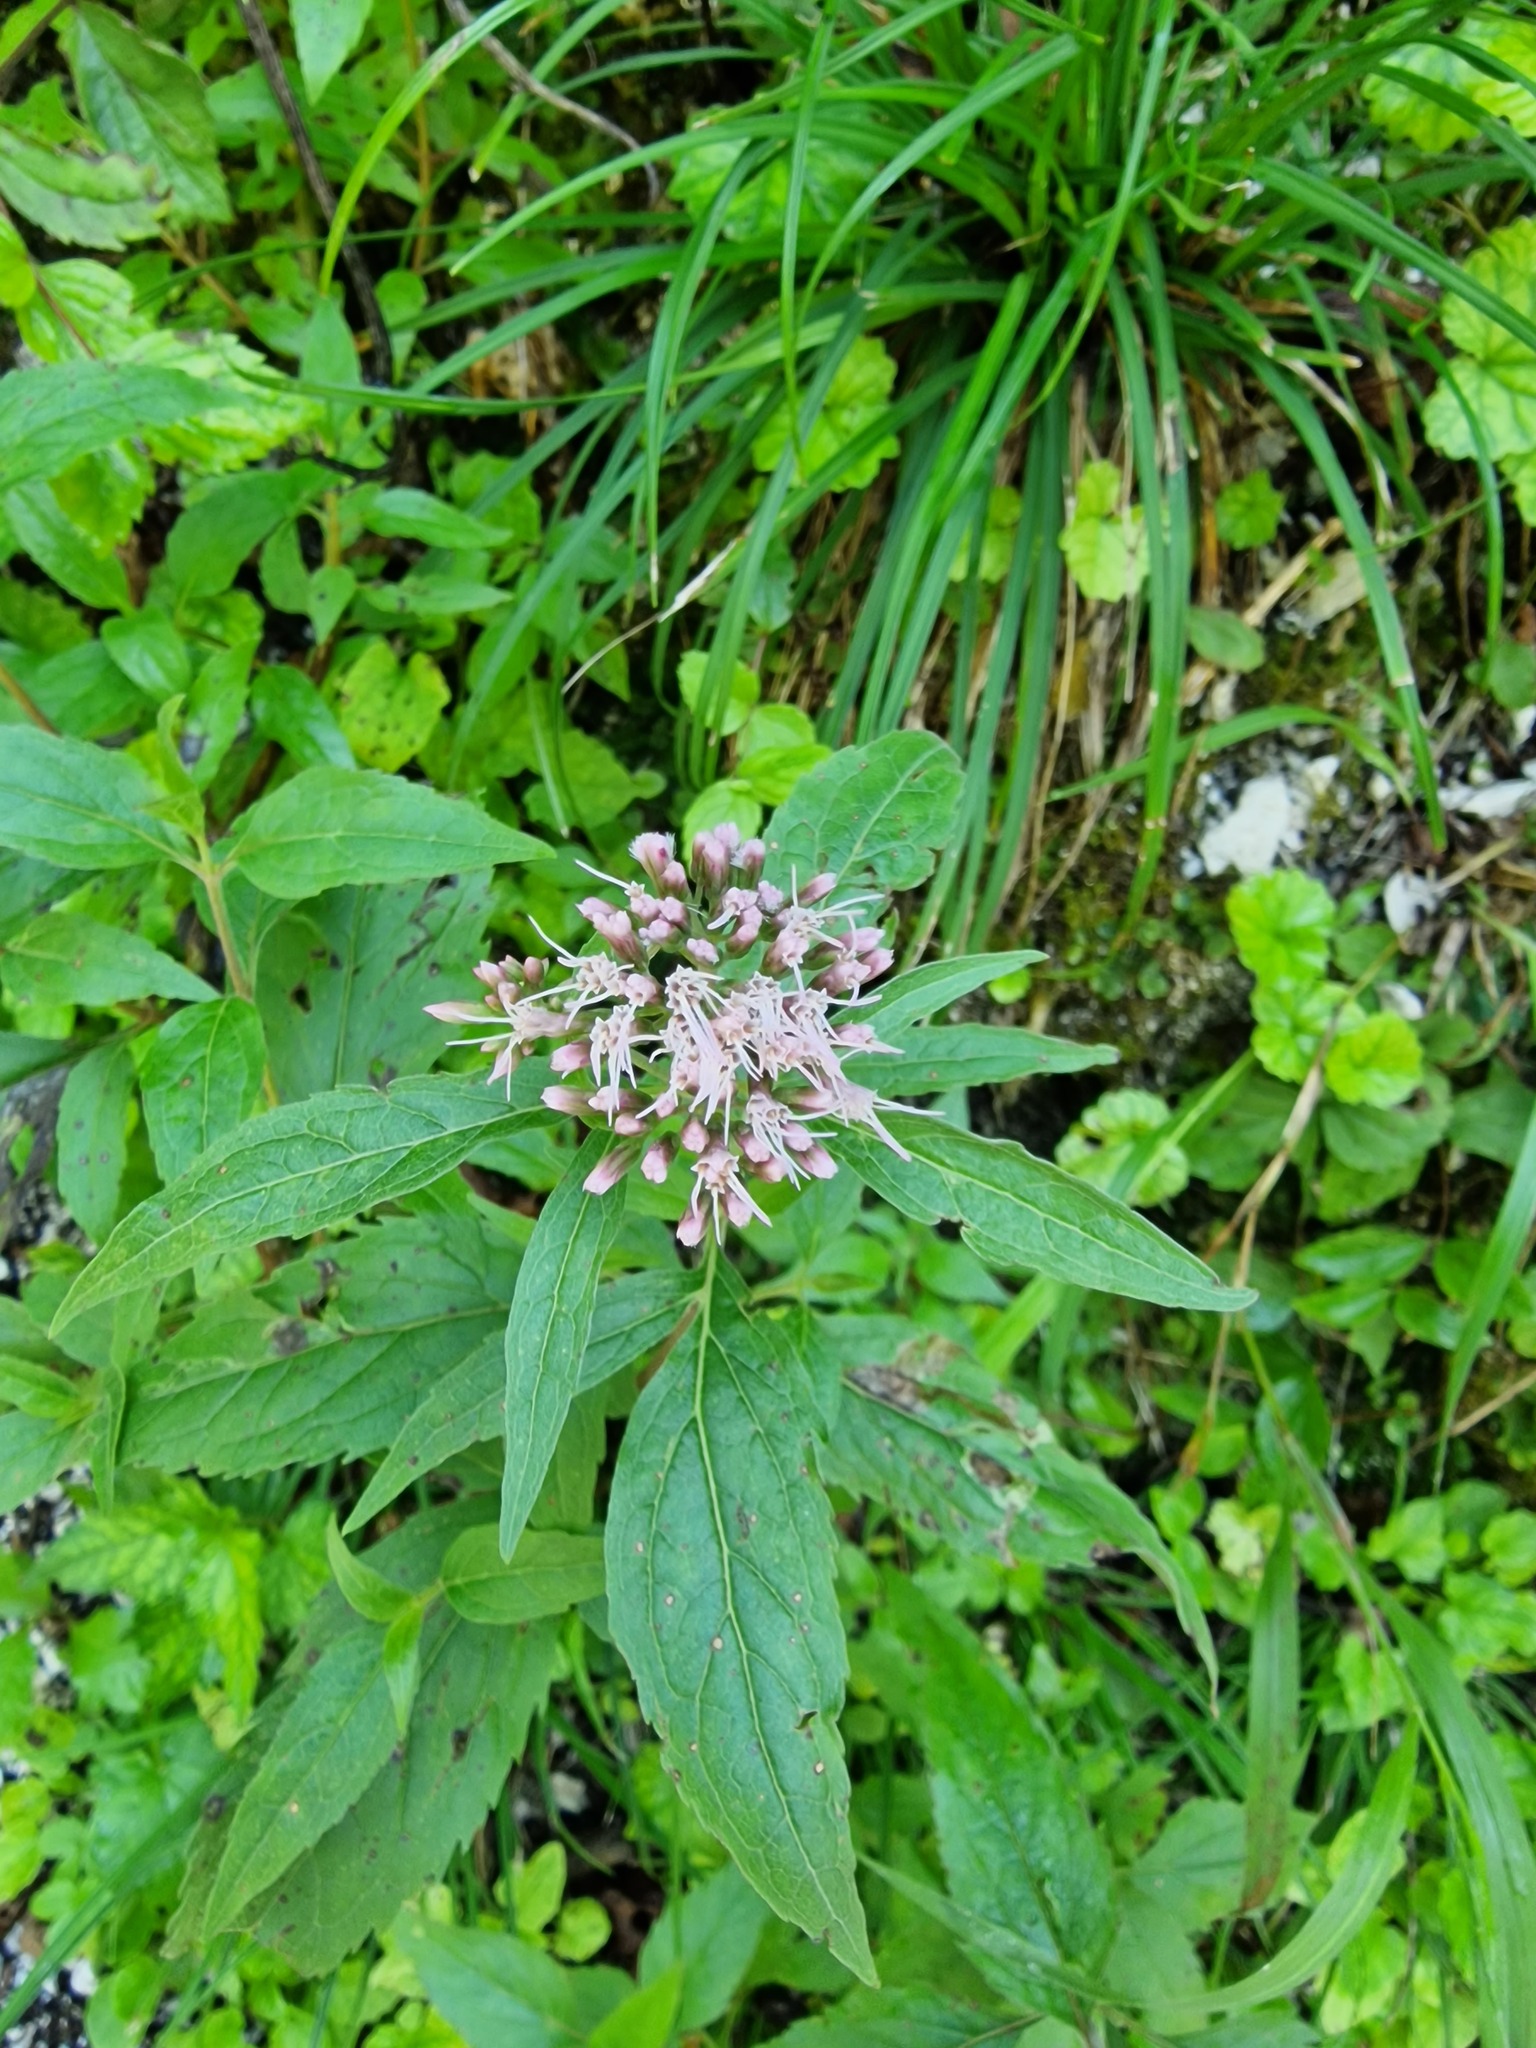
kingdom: Plantae
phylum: Tracheophyta
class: Magnoliopsida
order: Asterales
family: Asteraceae
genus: Eupatorium
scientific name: Eupatorium cannabinum
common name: Hemp-agrimony
